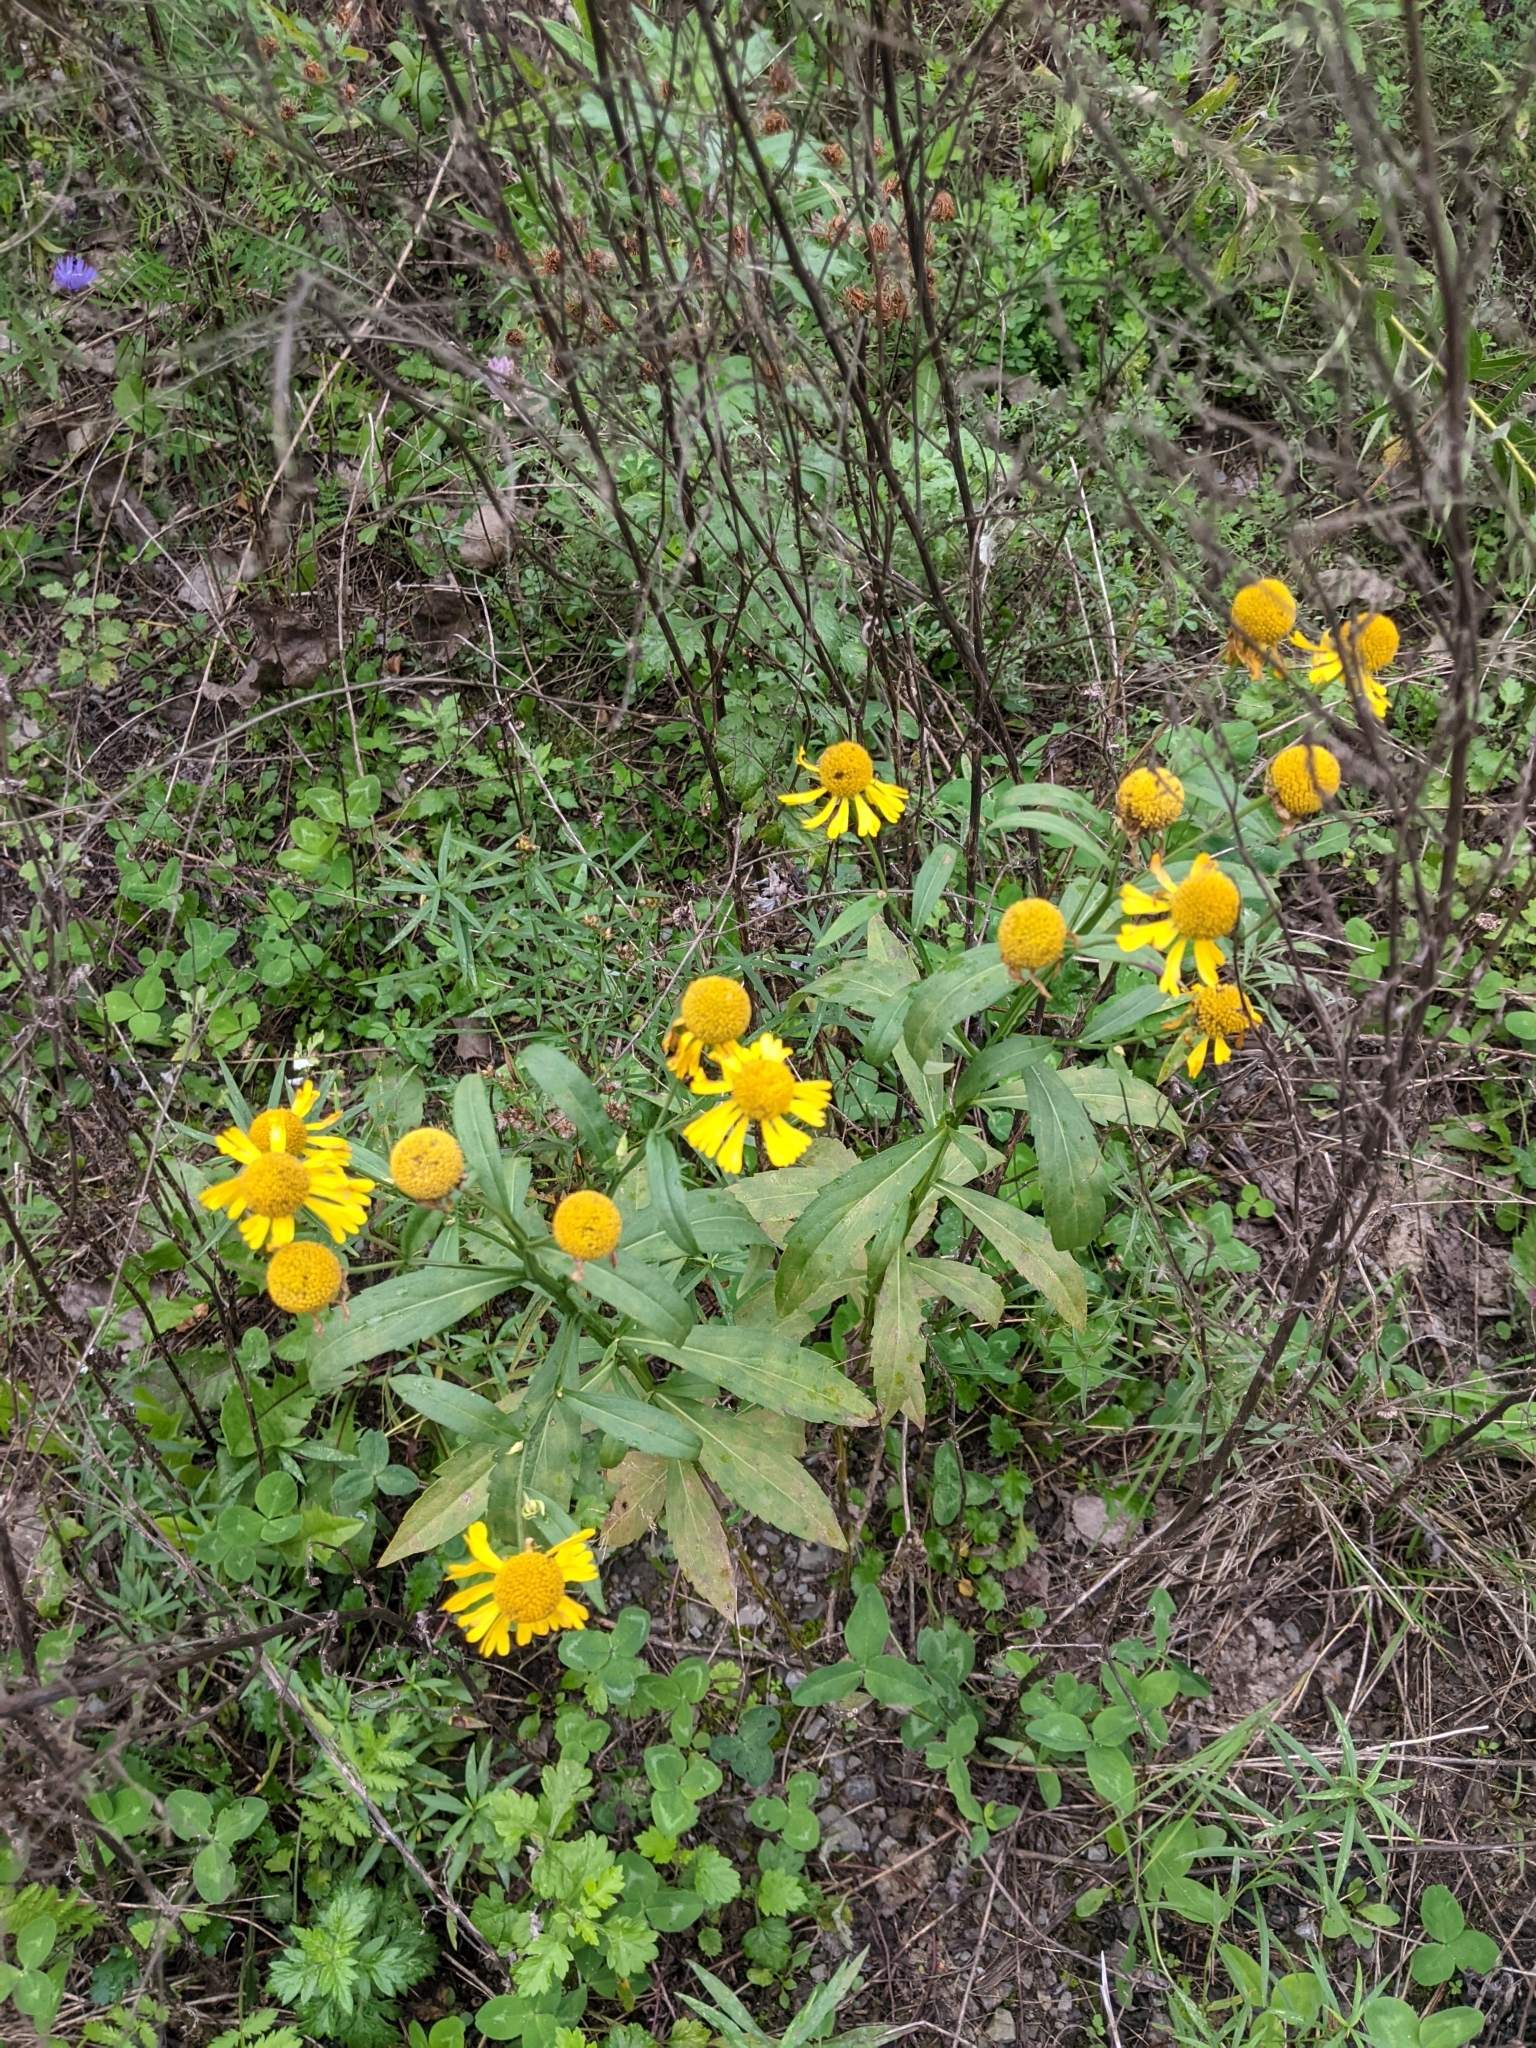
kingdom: Plantae
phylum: Tracheophyta
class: Magnoliopsida
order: Asterales
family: Asteraceae
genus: Helenium
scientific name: Helenium autumnale
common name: Sneezeweed
